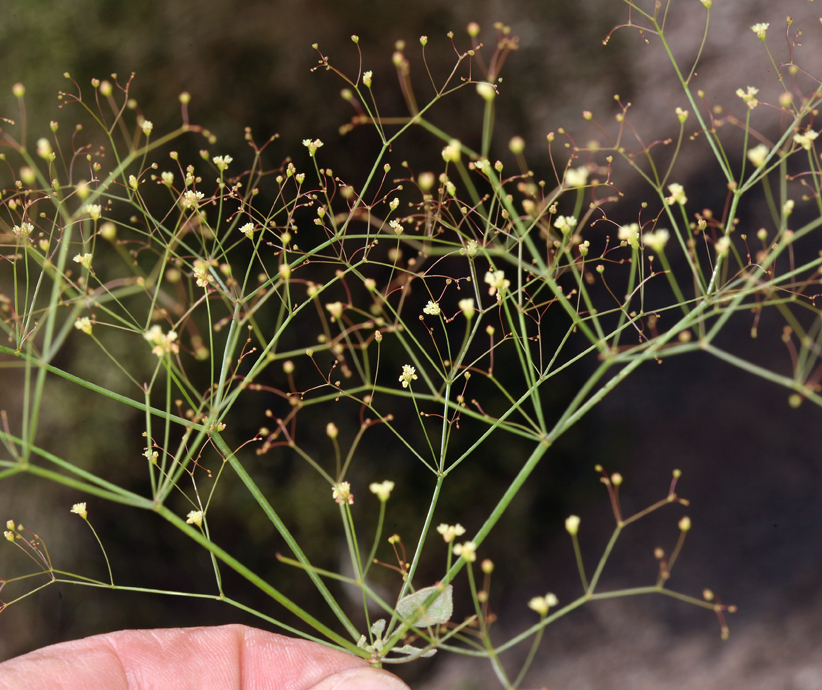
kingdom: Plantae
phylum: Tracheophyta
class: Magnoliopsida
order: Caryophyllales
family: Polygonaceae
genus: Eriogonum
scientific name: Eriogonum trichopes
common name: Little desert trumpet
